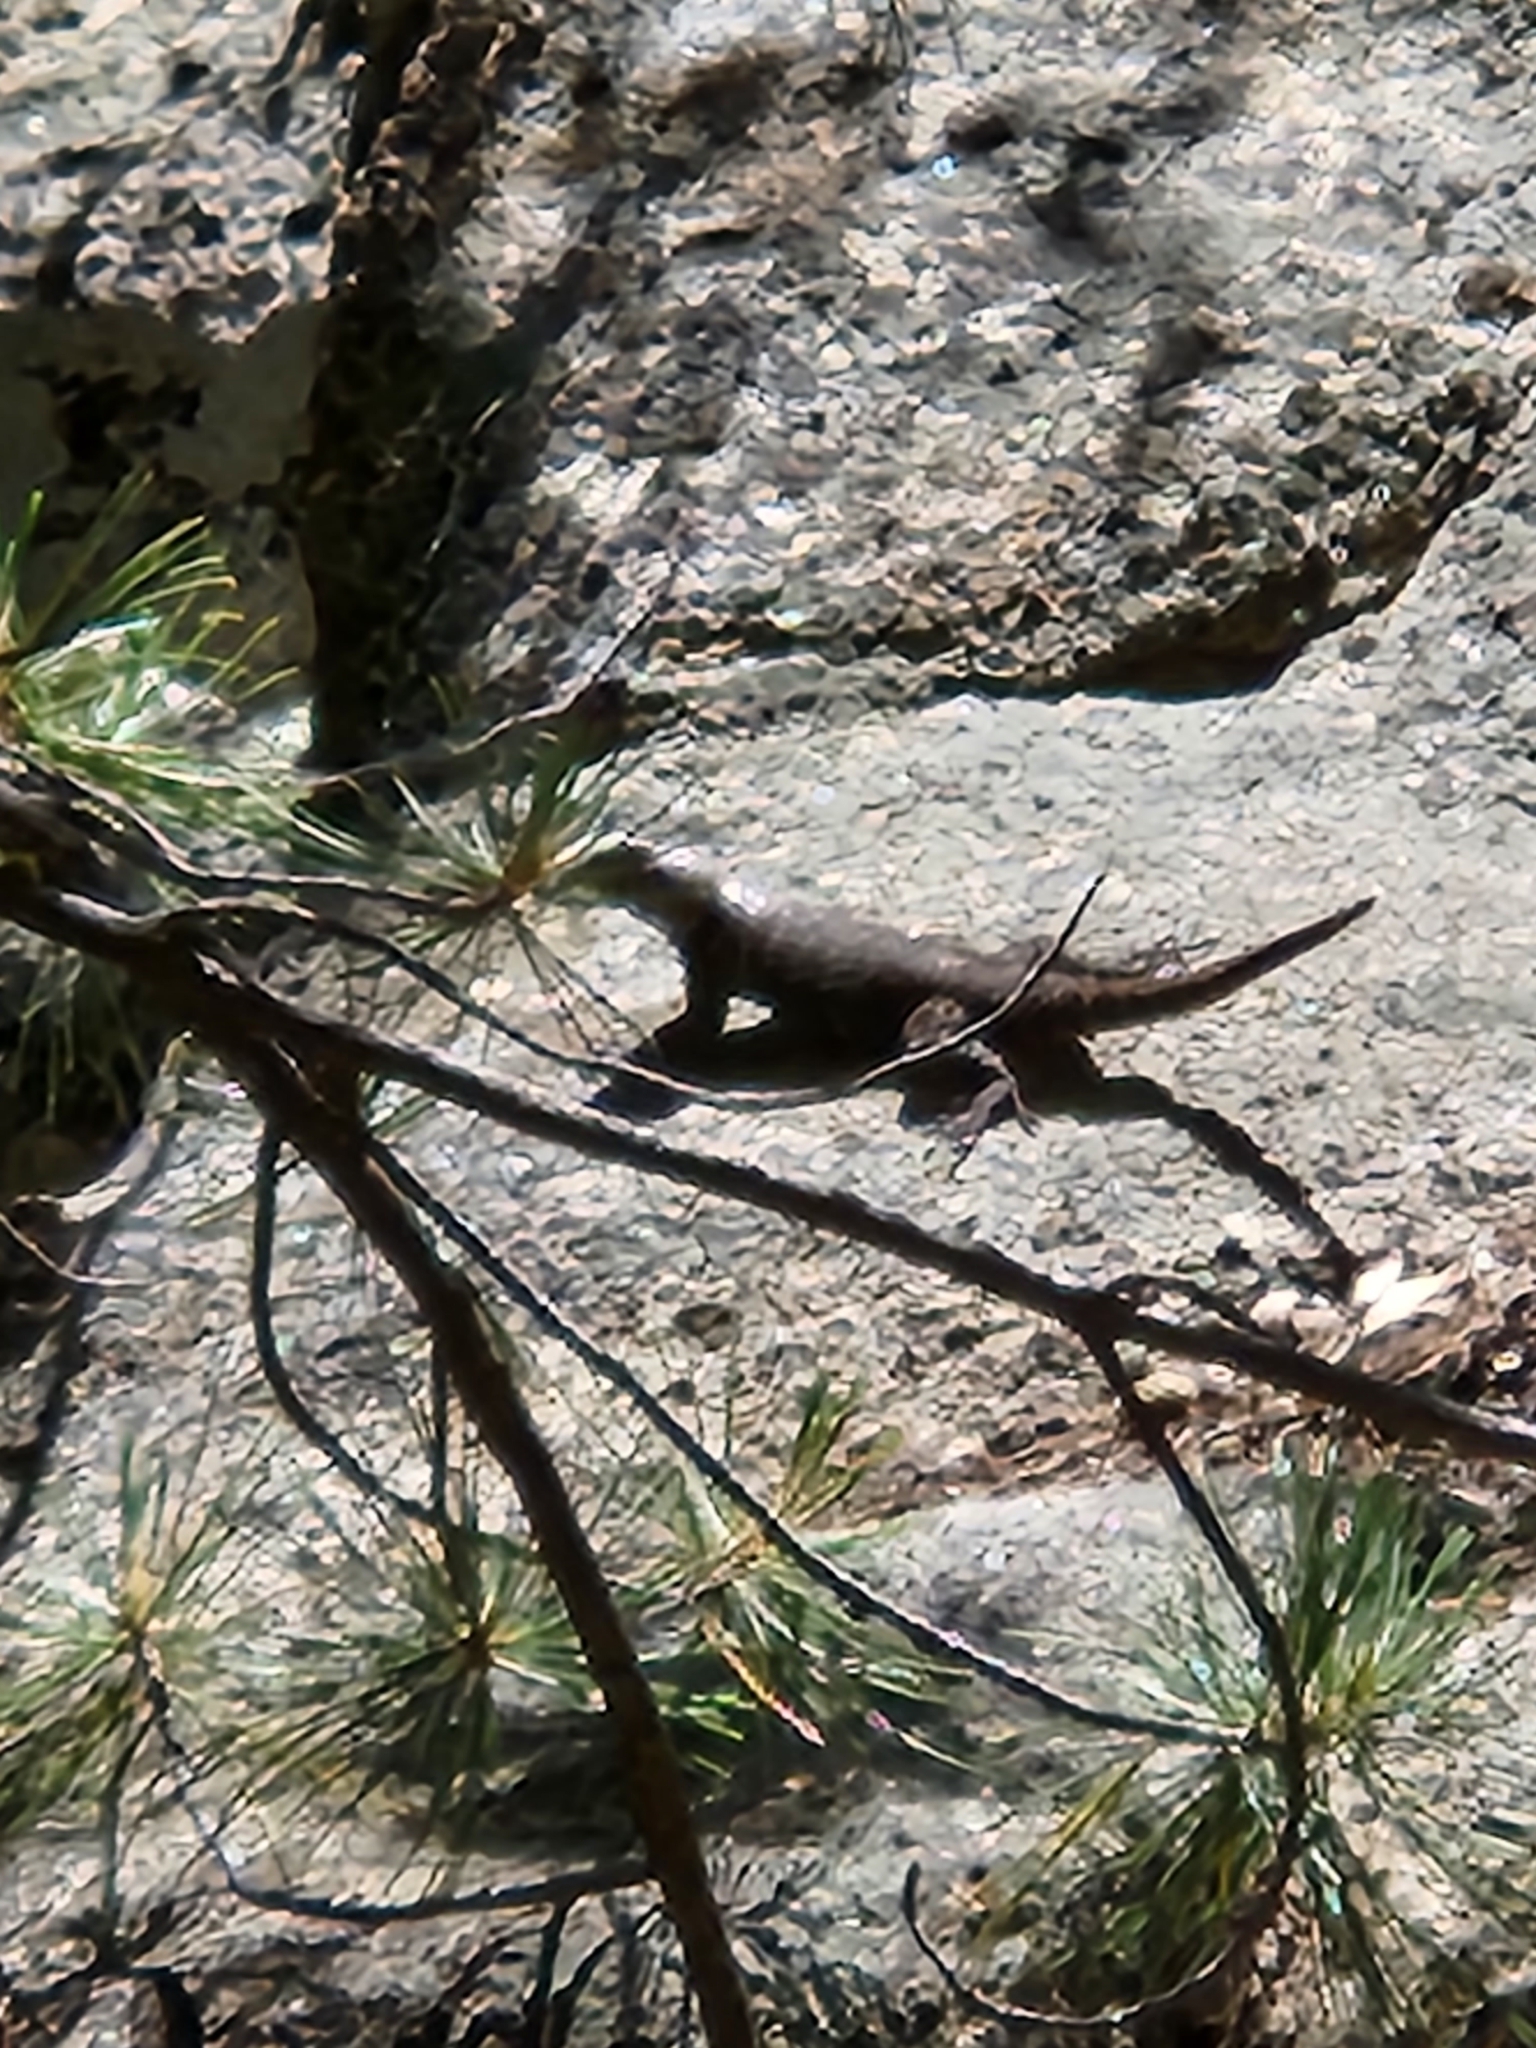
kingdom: Animalia
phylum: Chordata
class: Squamata
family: Phrynosomatidae
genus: Sceloporus
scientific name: Sceloporus occidentalis
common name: Western fence lizard
